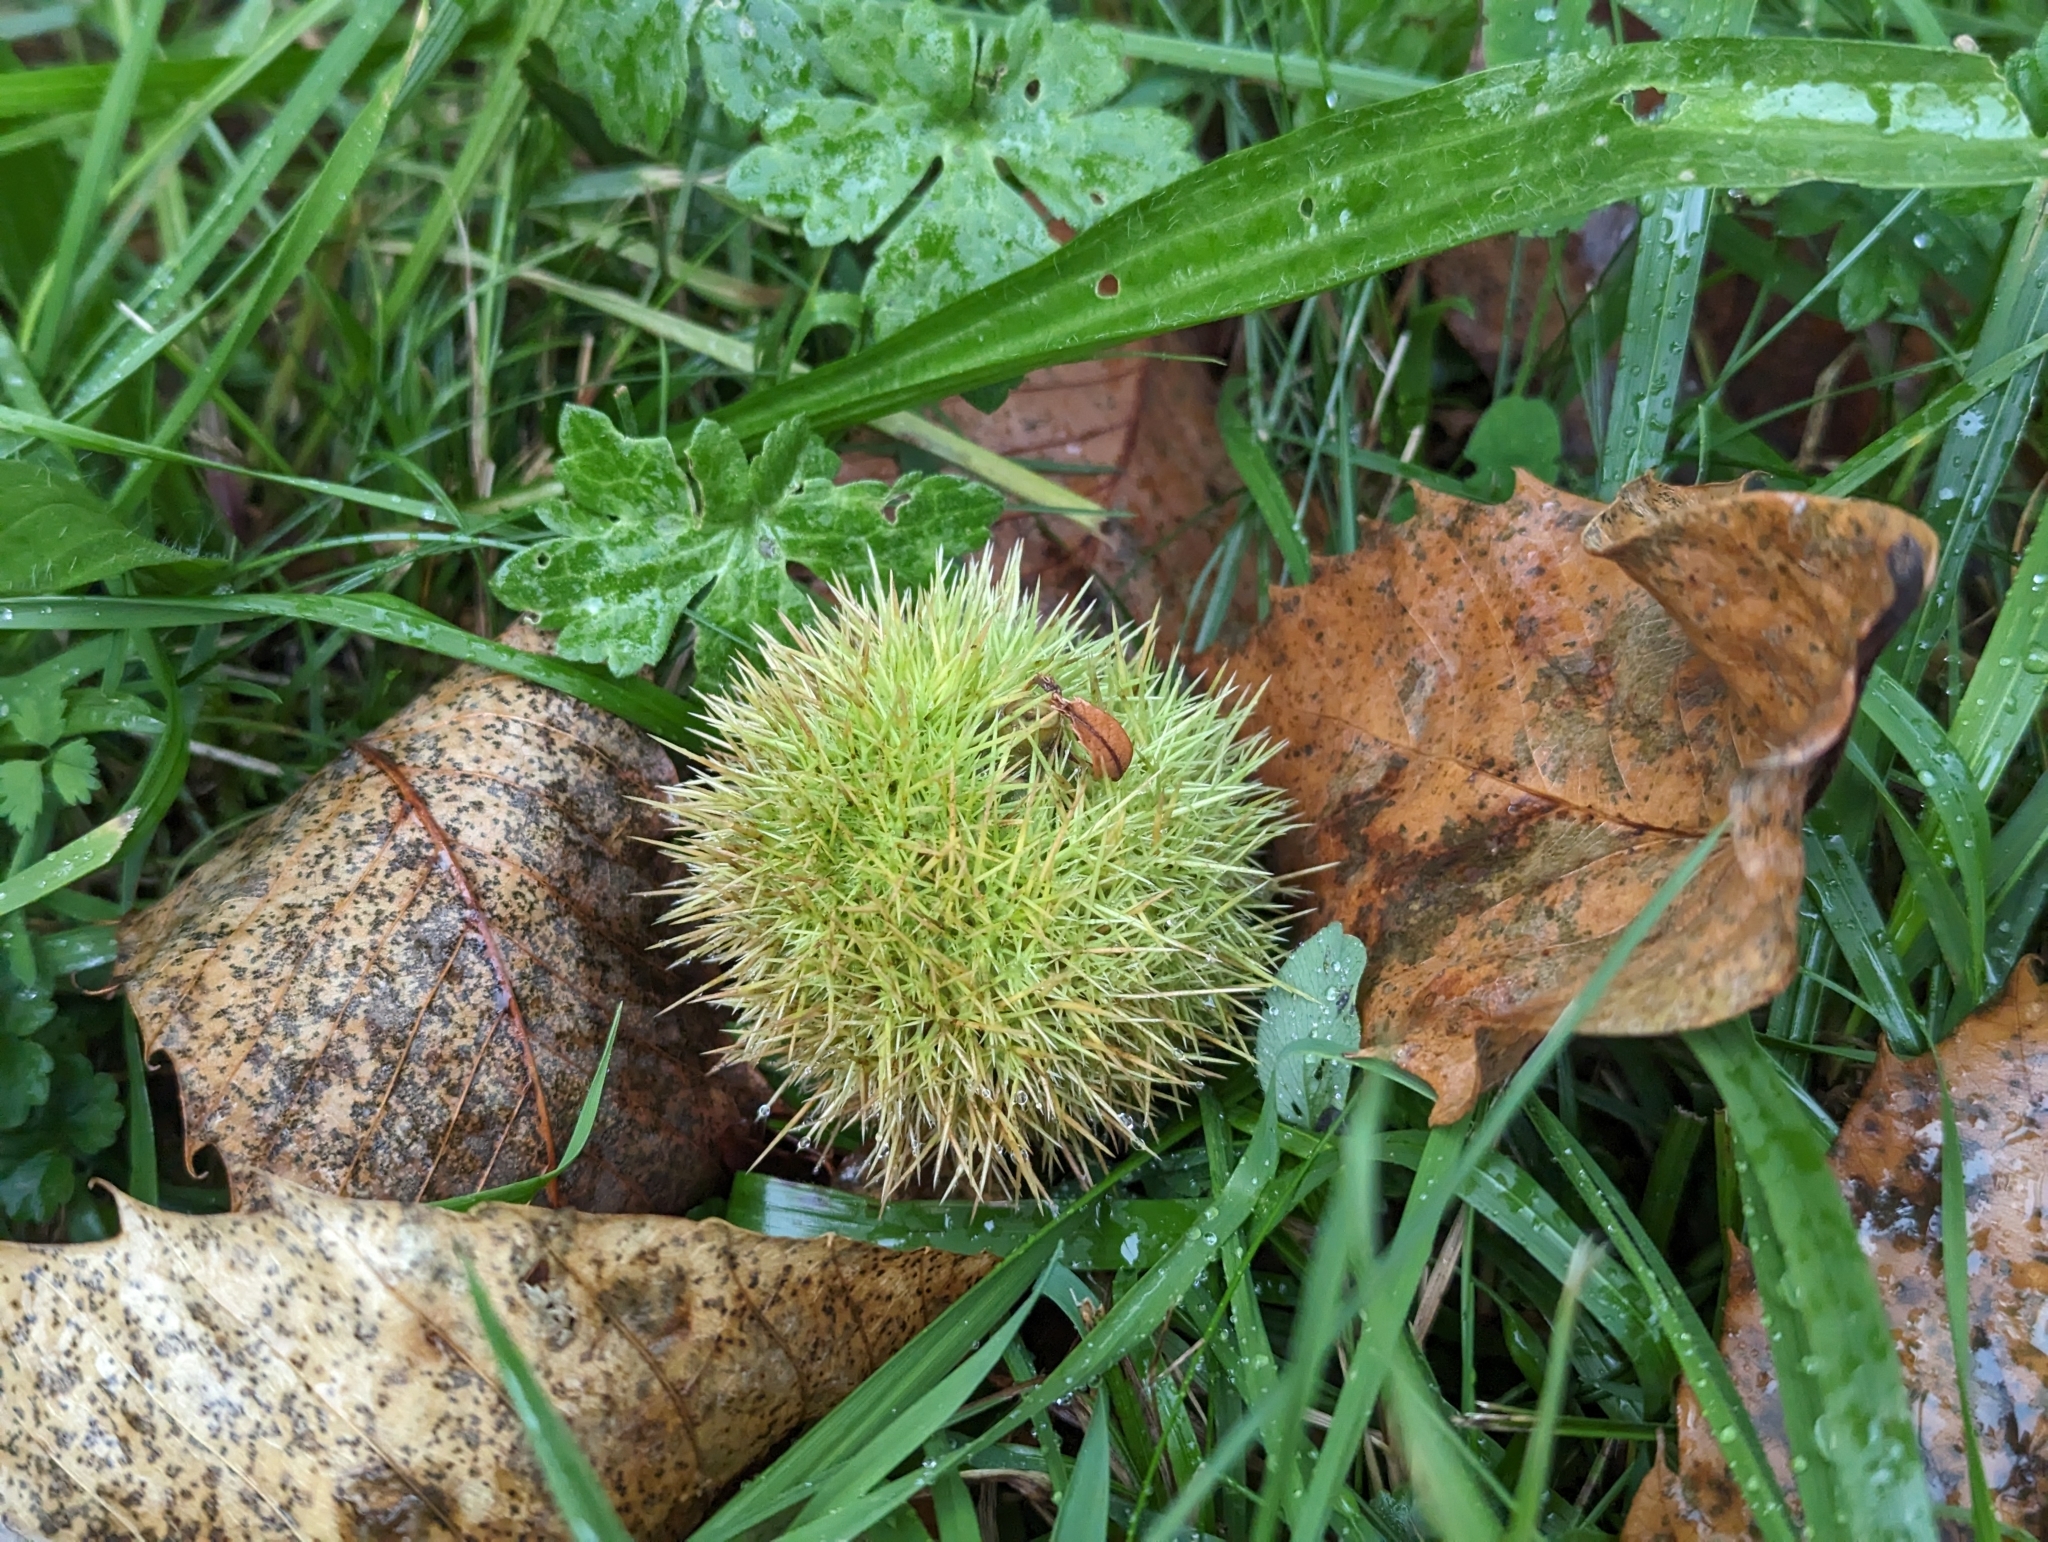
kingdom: Plantae
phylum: Tracheophyta
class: Magnoliopsida
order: Fagales
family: Fagaceae
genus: Castanea
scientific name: Castanea sativa
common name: Sweet chestnut
